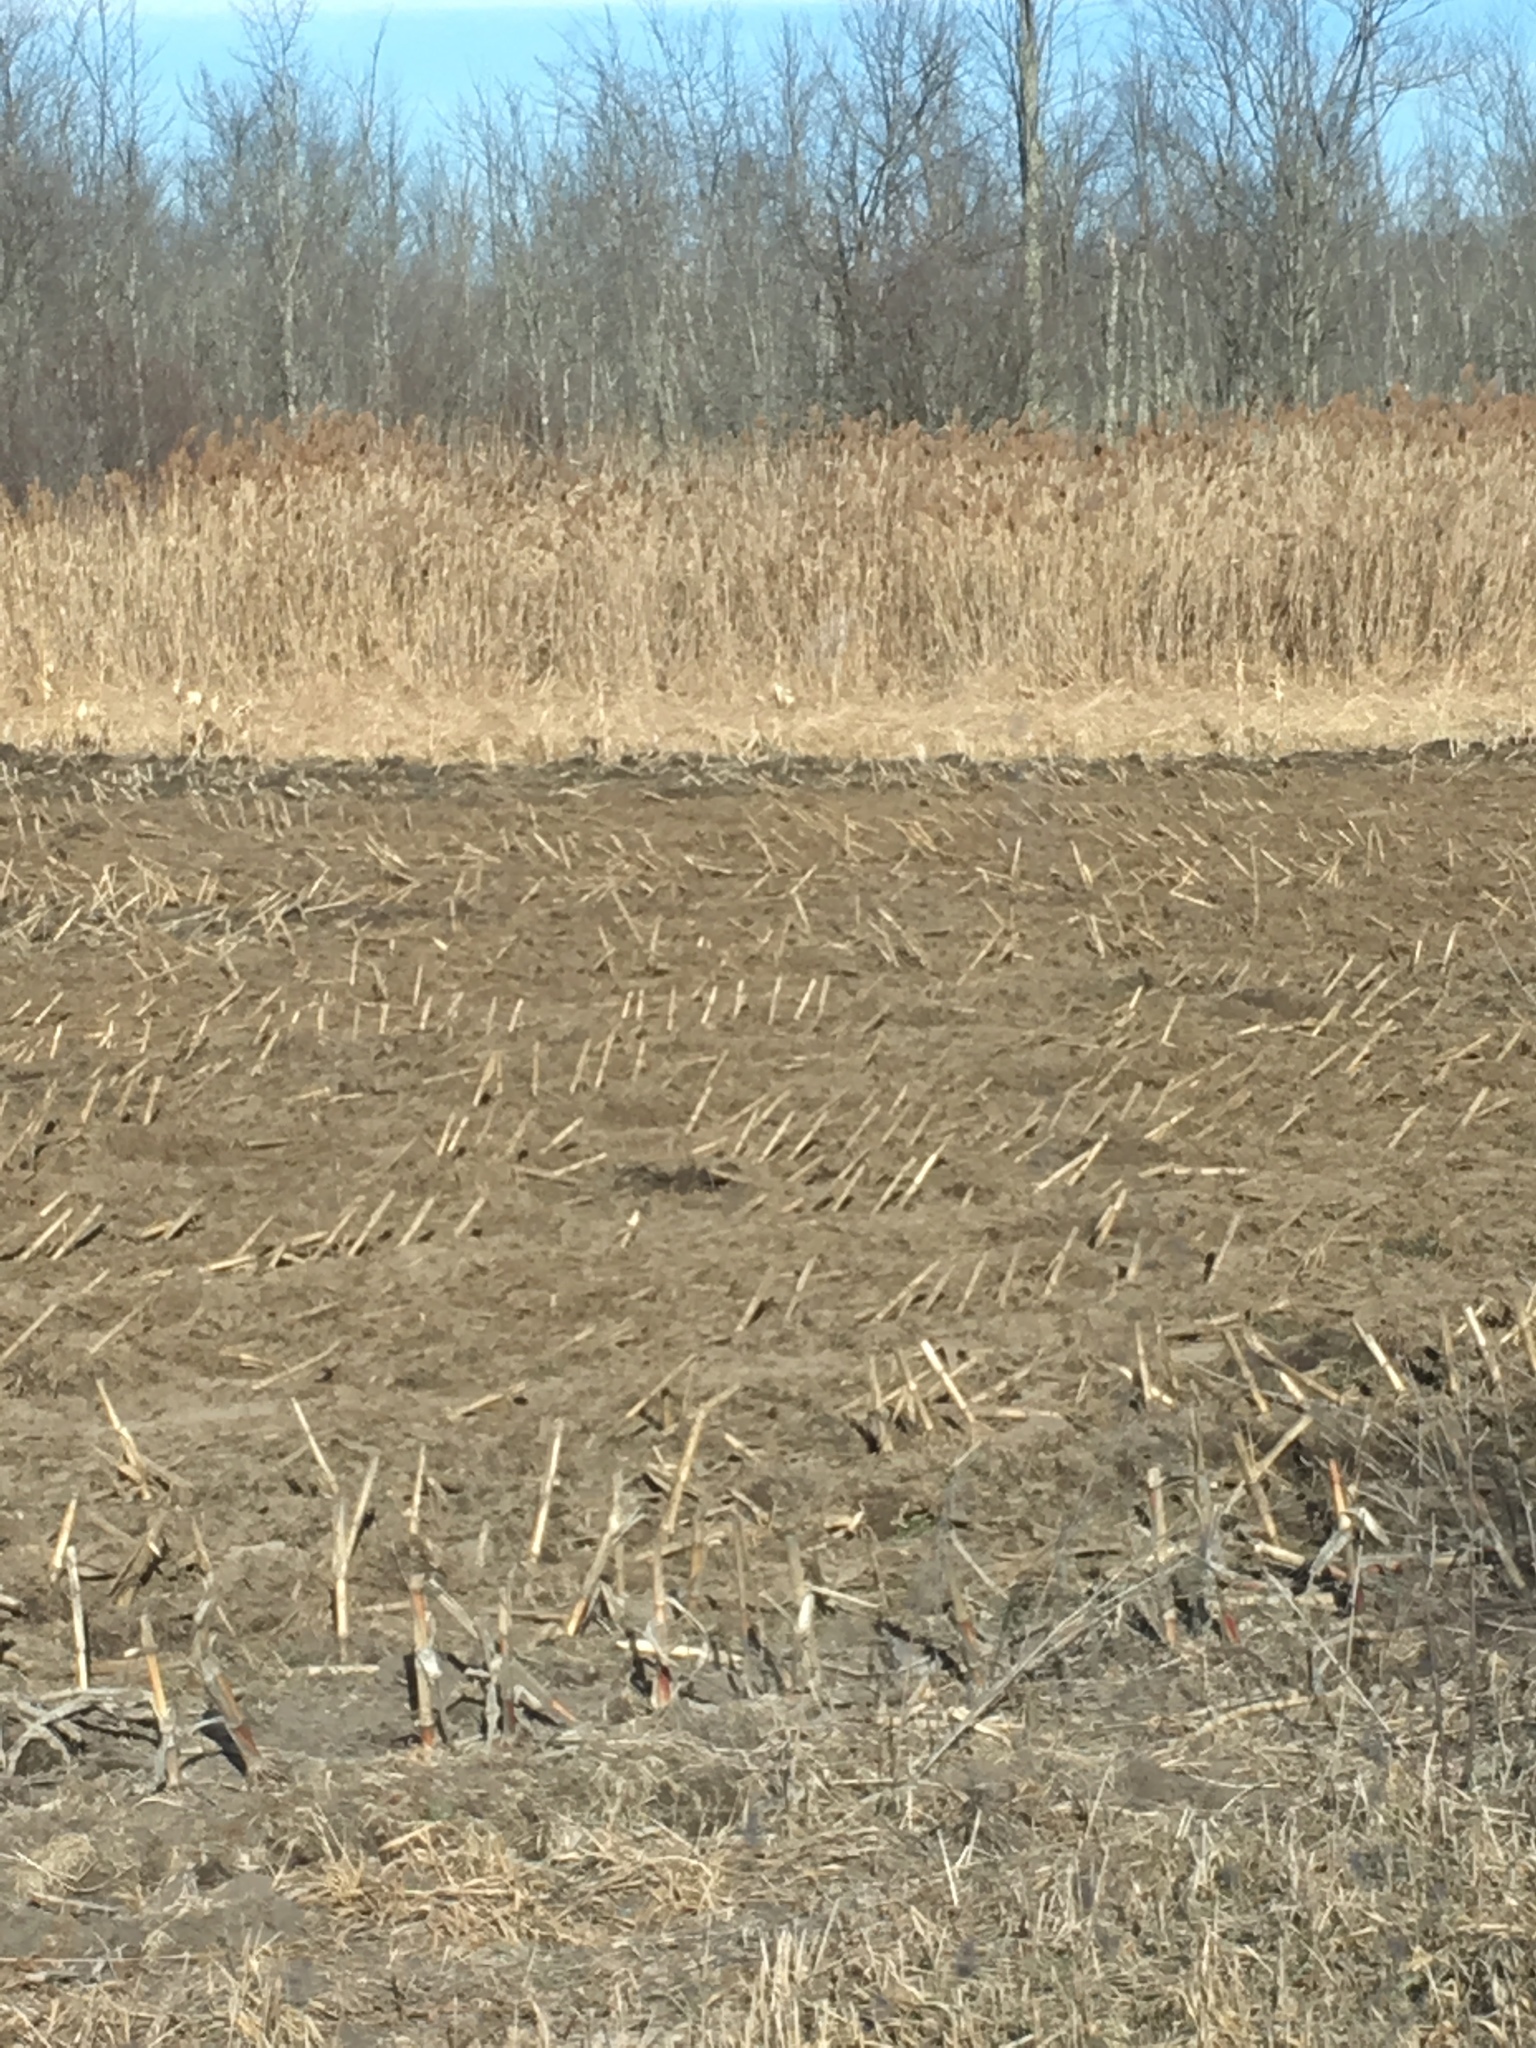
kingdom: Plantae
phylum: Tracheophyta
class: Liliopsida
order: Poales
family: Poaceae
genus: Phragmites
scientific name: Phragmites australis
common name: Common reed
